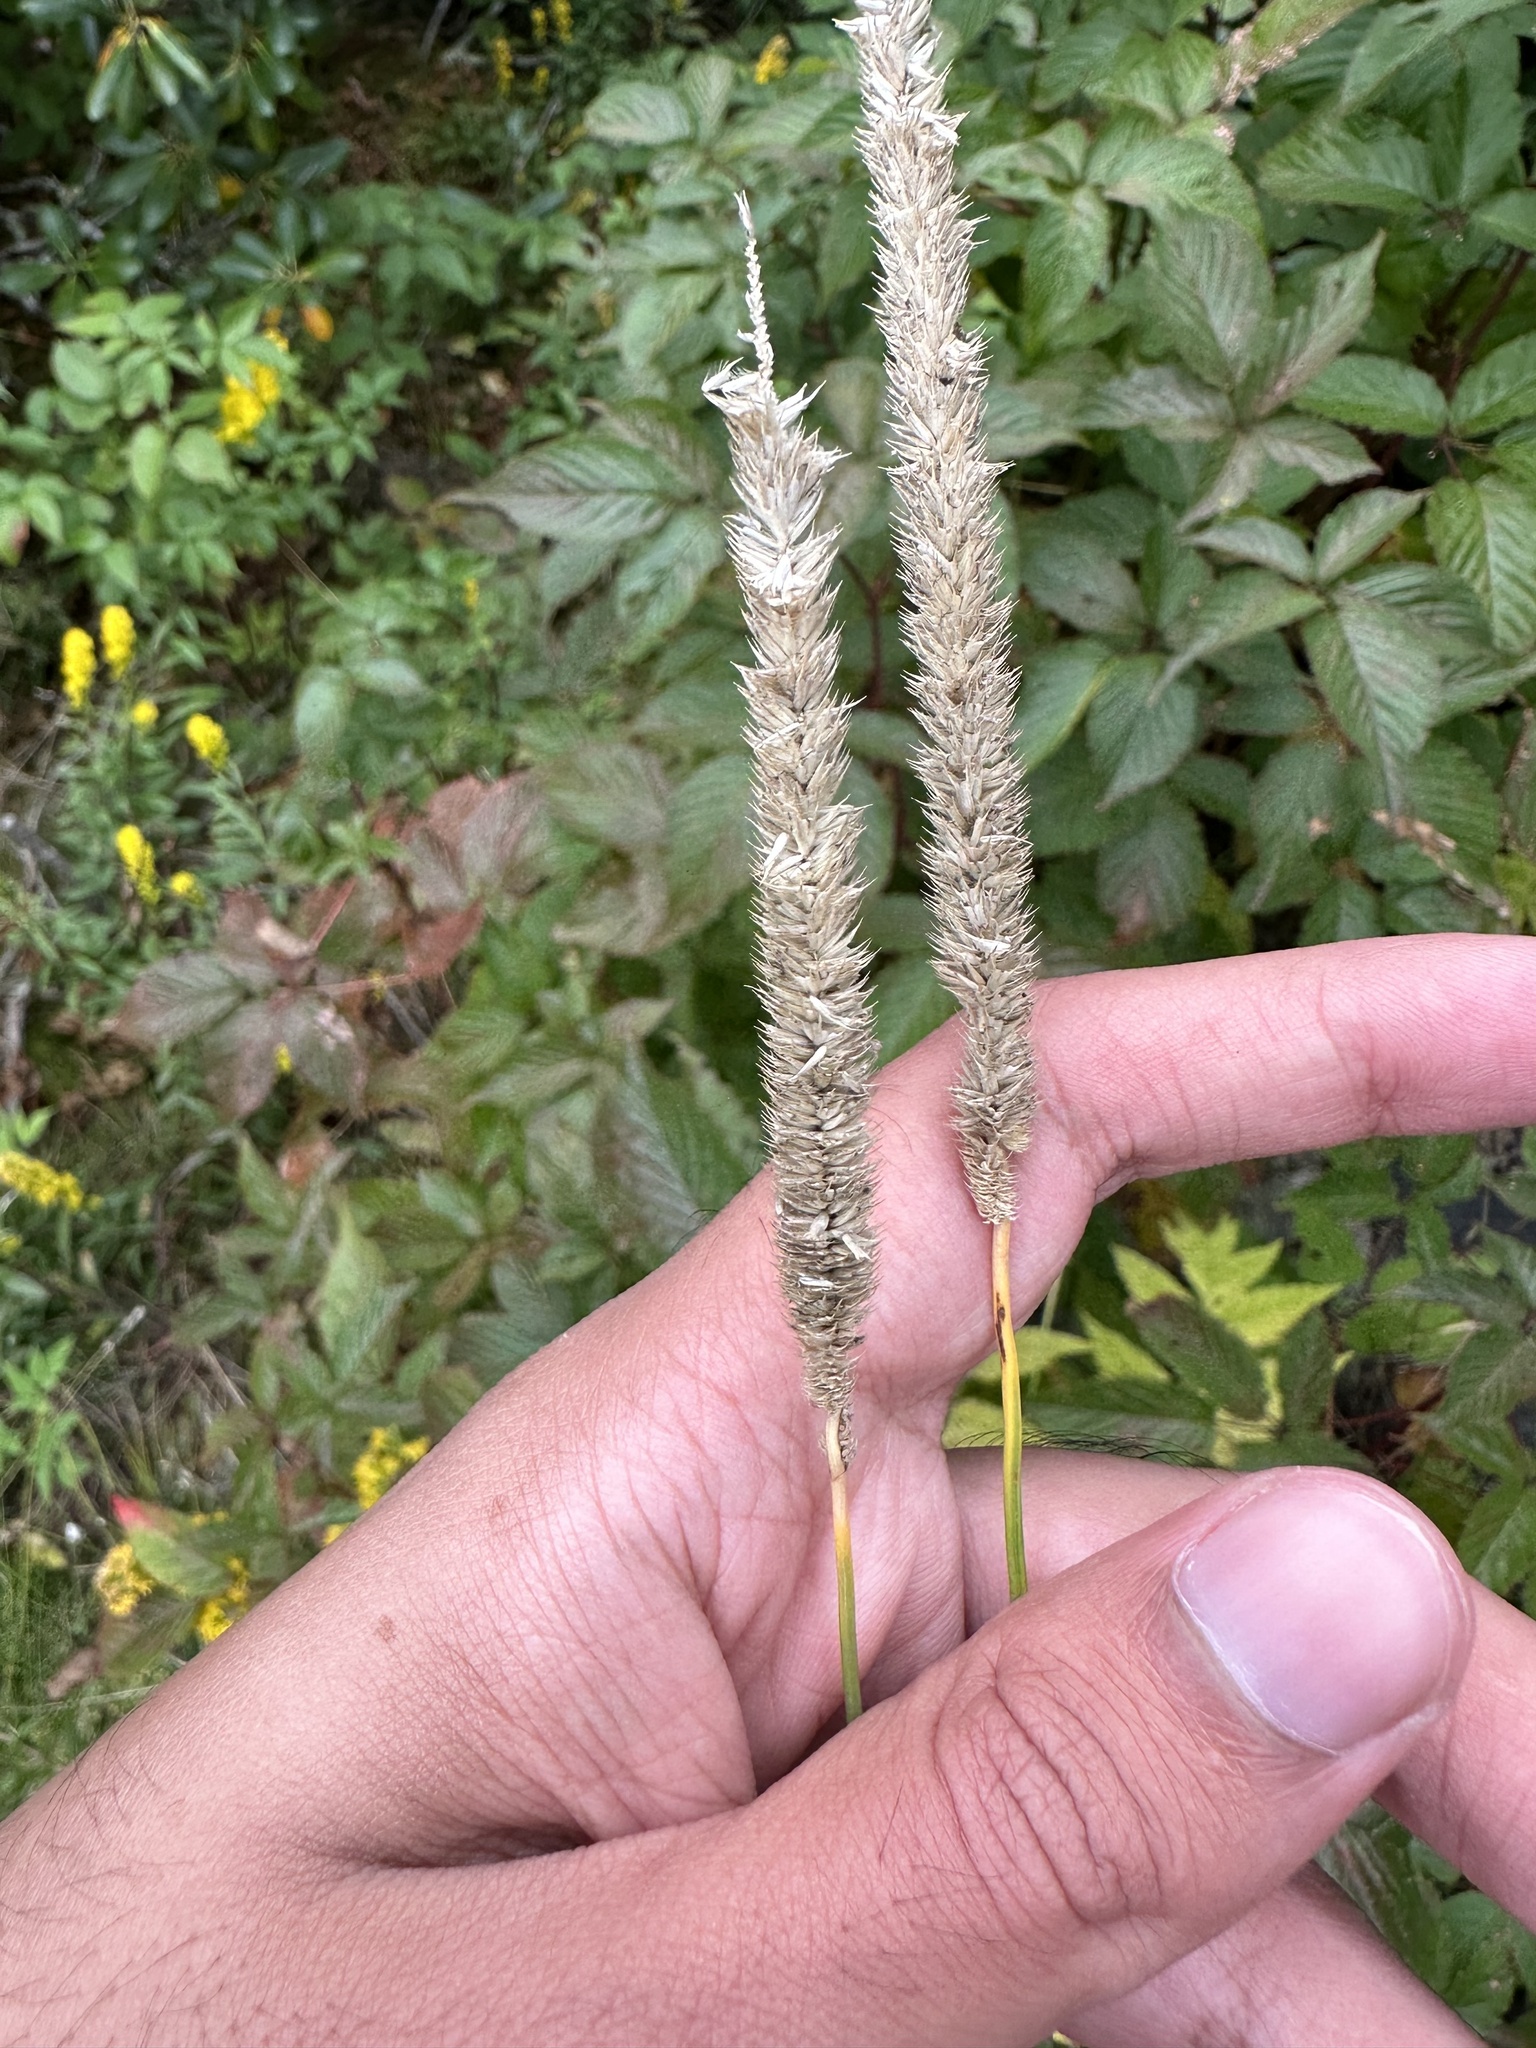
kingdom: Plantae
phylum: Tracheophyta
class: Liliopsida
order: Poales
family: Poaceae
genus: Phleum
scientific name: Phleum pratense
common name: Timothy grass
